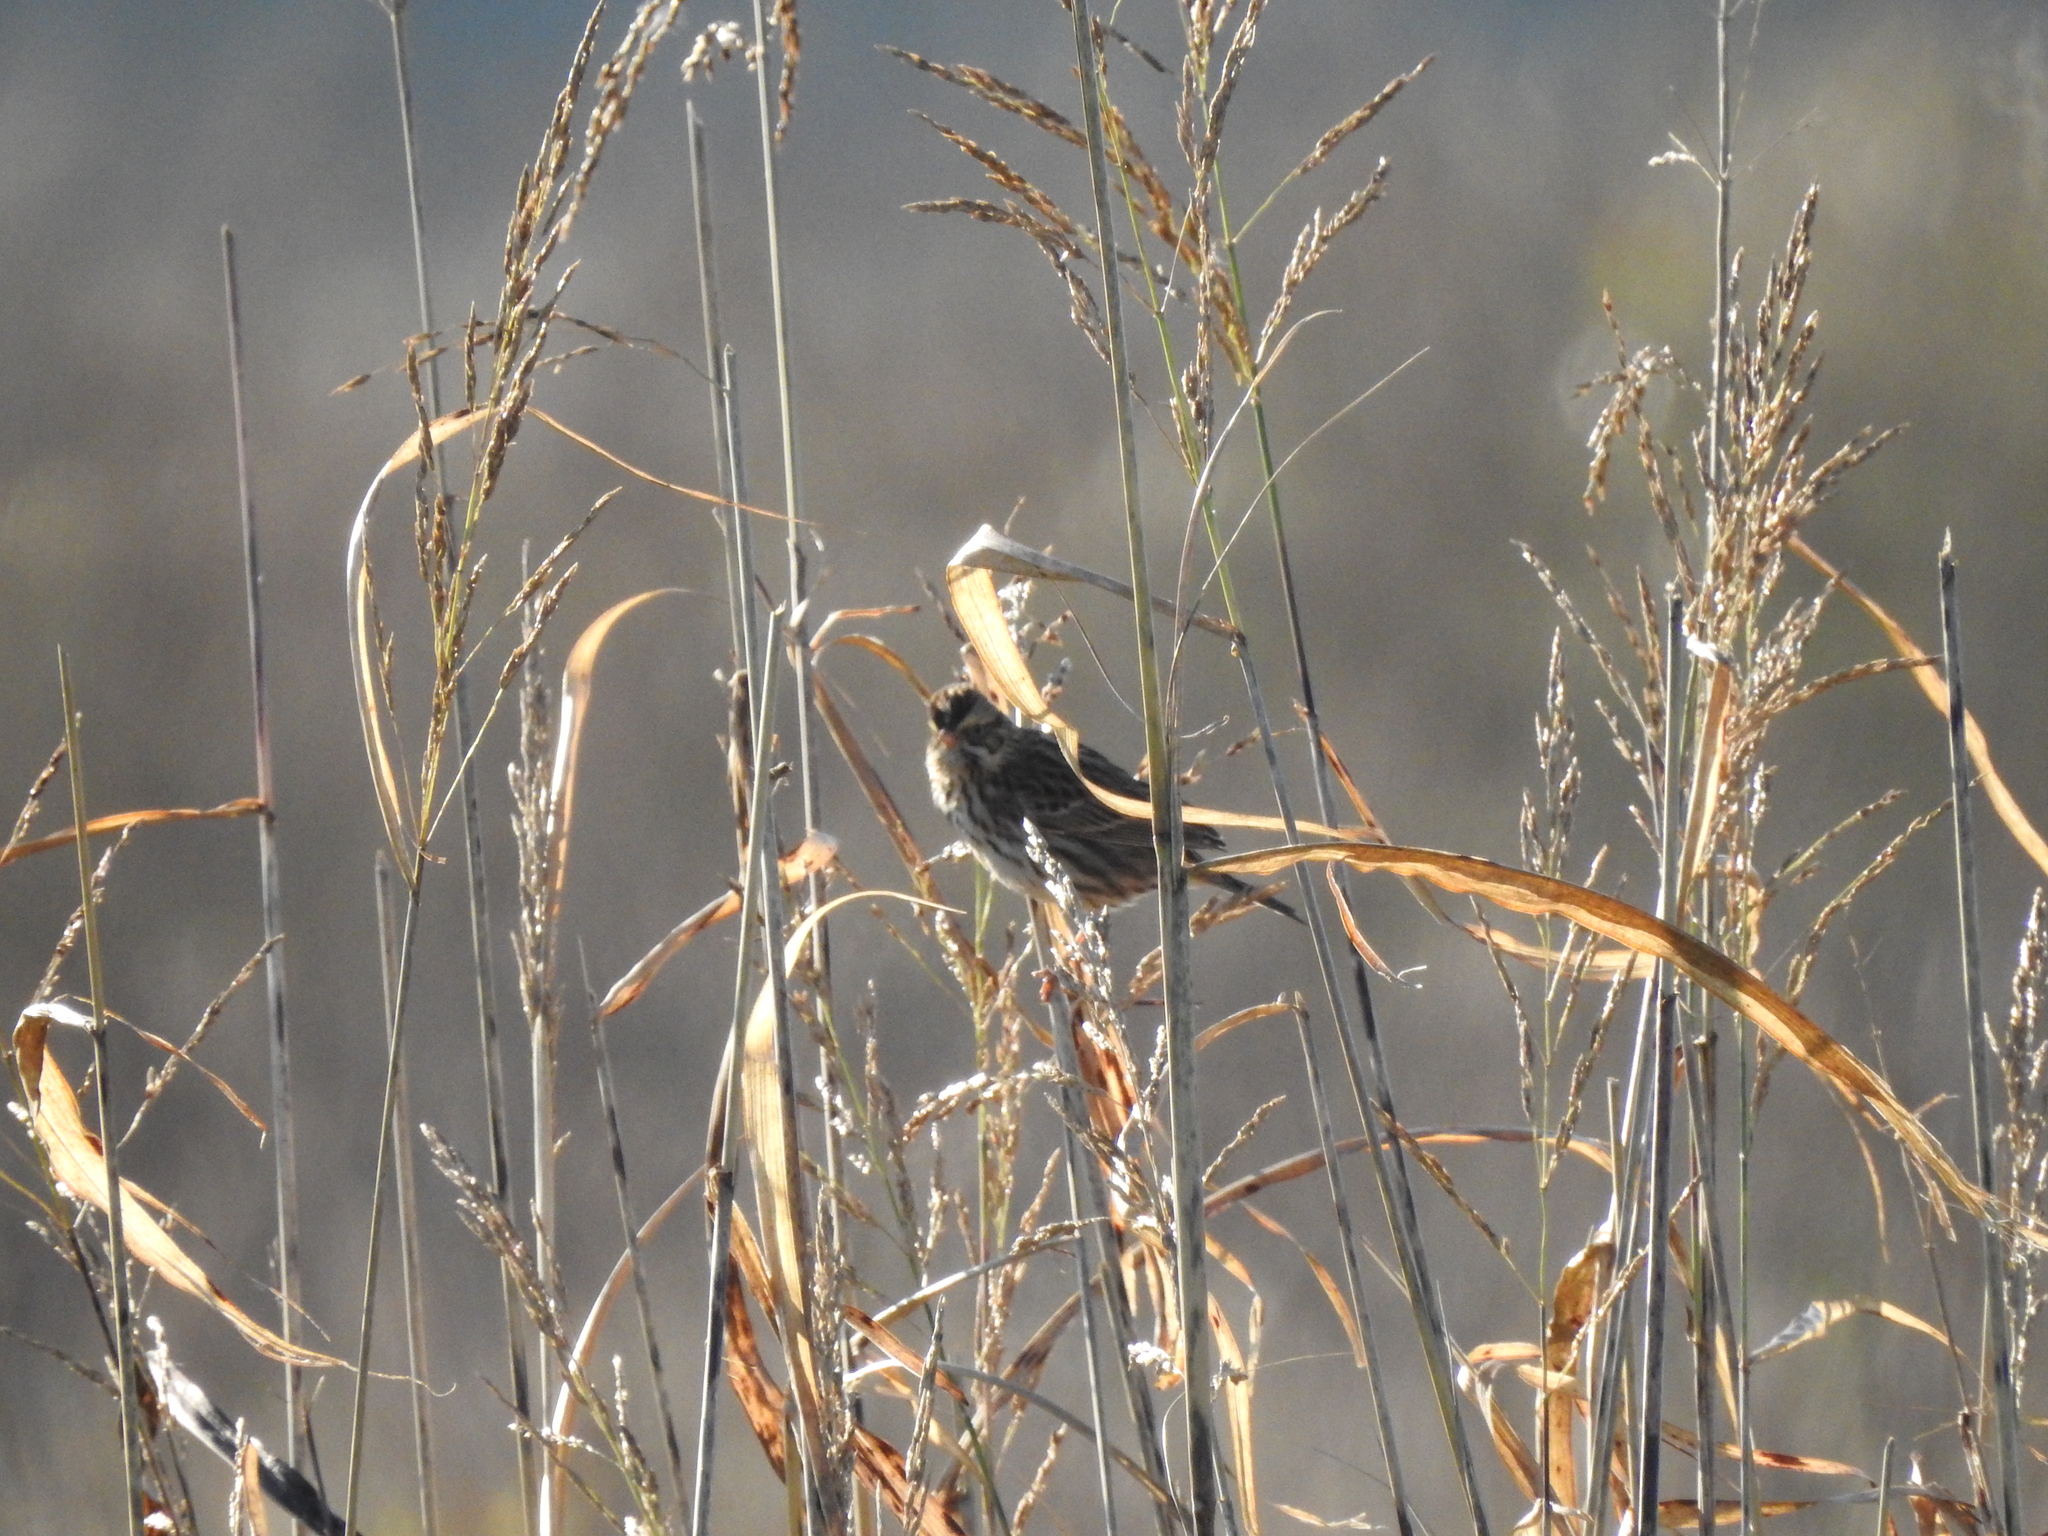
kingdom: Animalia
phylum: Chordata
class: Aves
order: Passeriformes
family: Passerellidae
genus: Passerculus
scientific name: Passerculus sandwichensis
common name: Savannah sparrow
